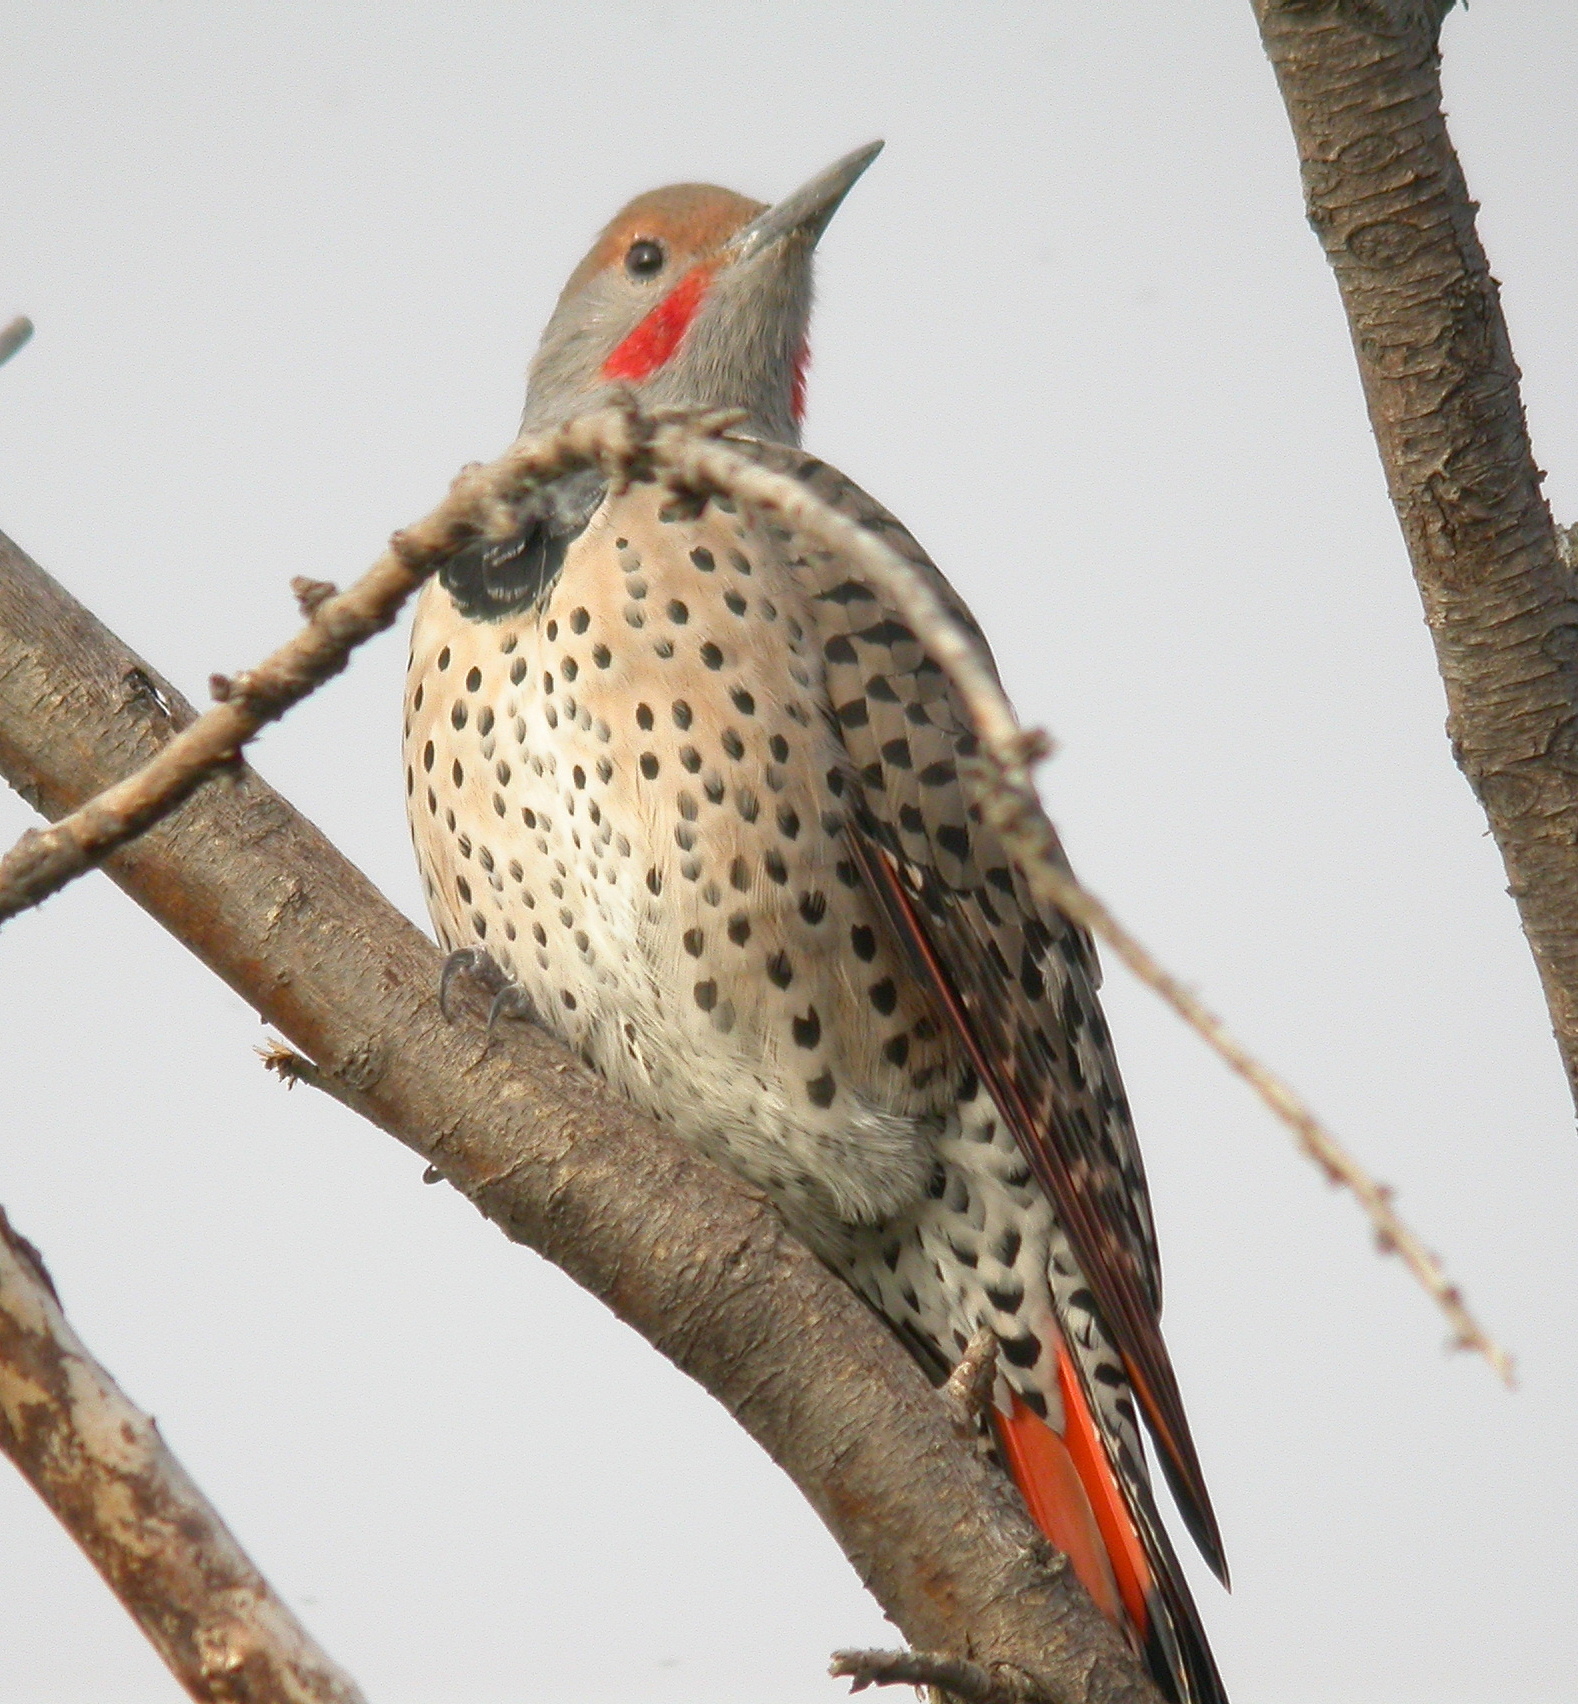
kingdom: Animalia
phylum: Chordata
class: Aves
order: Piciformes
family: Picidae
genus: Colaptes
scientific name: Colaptes auratus
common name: Northern flicker
